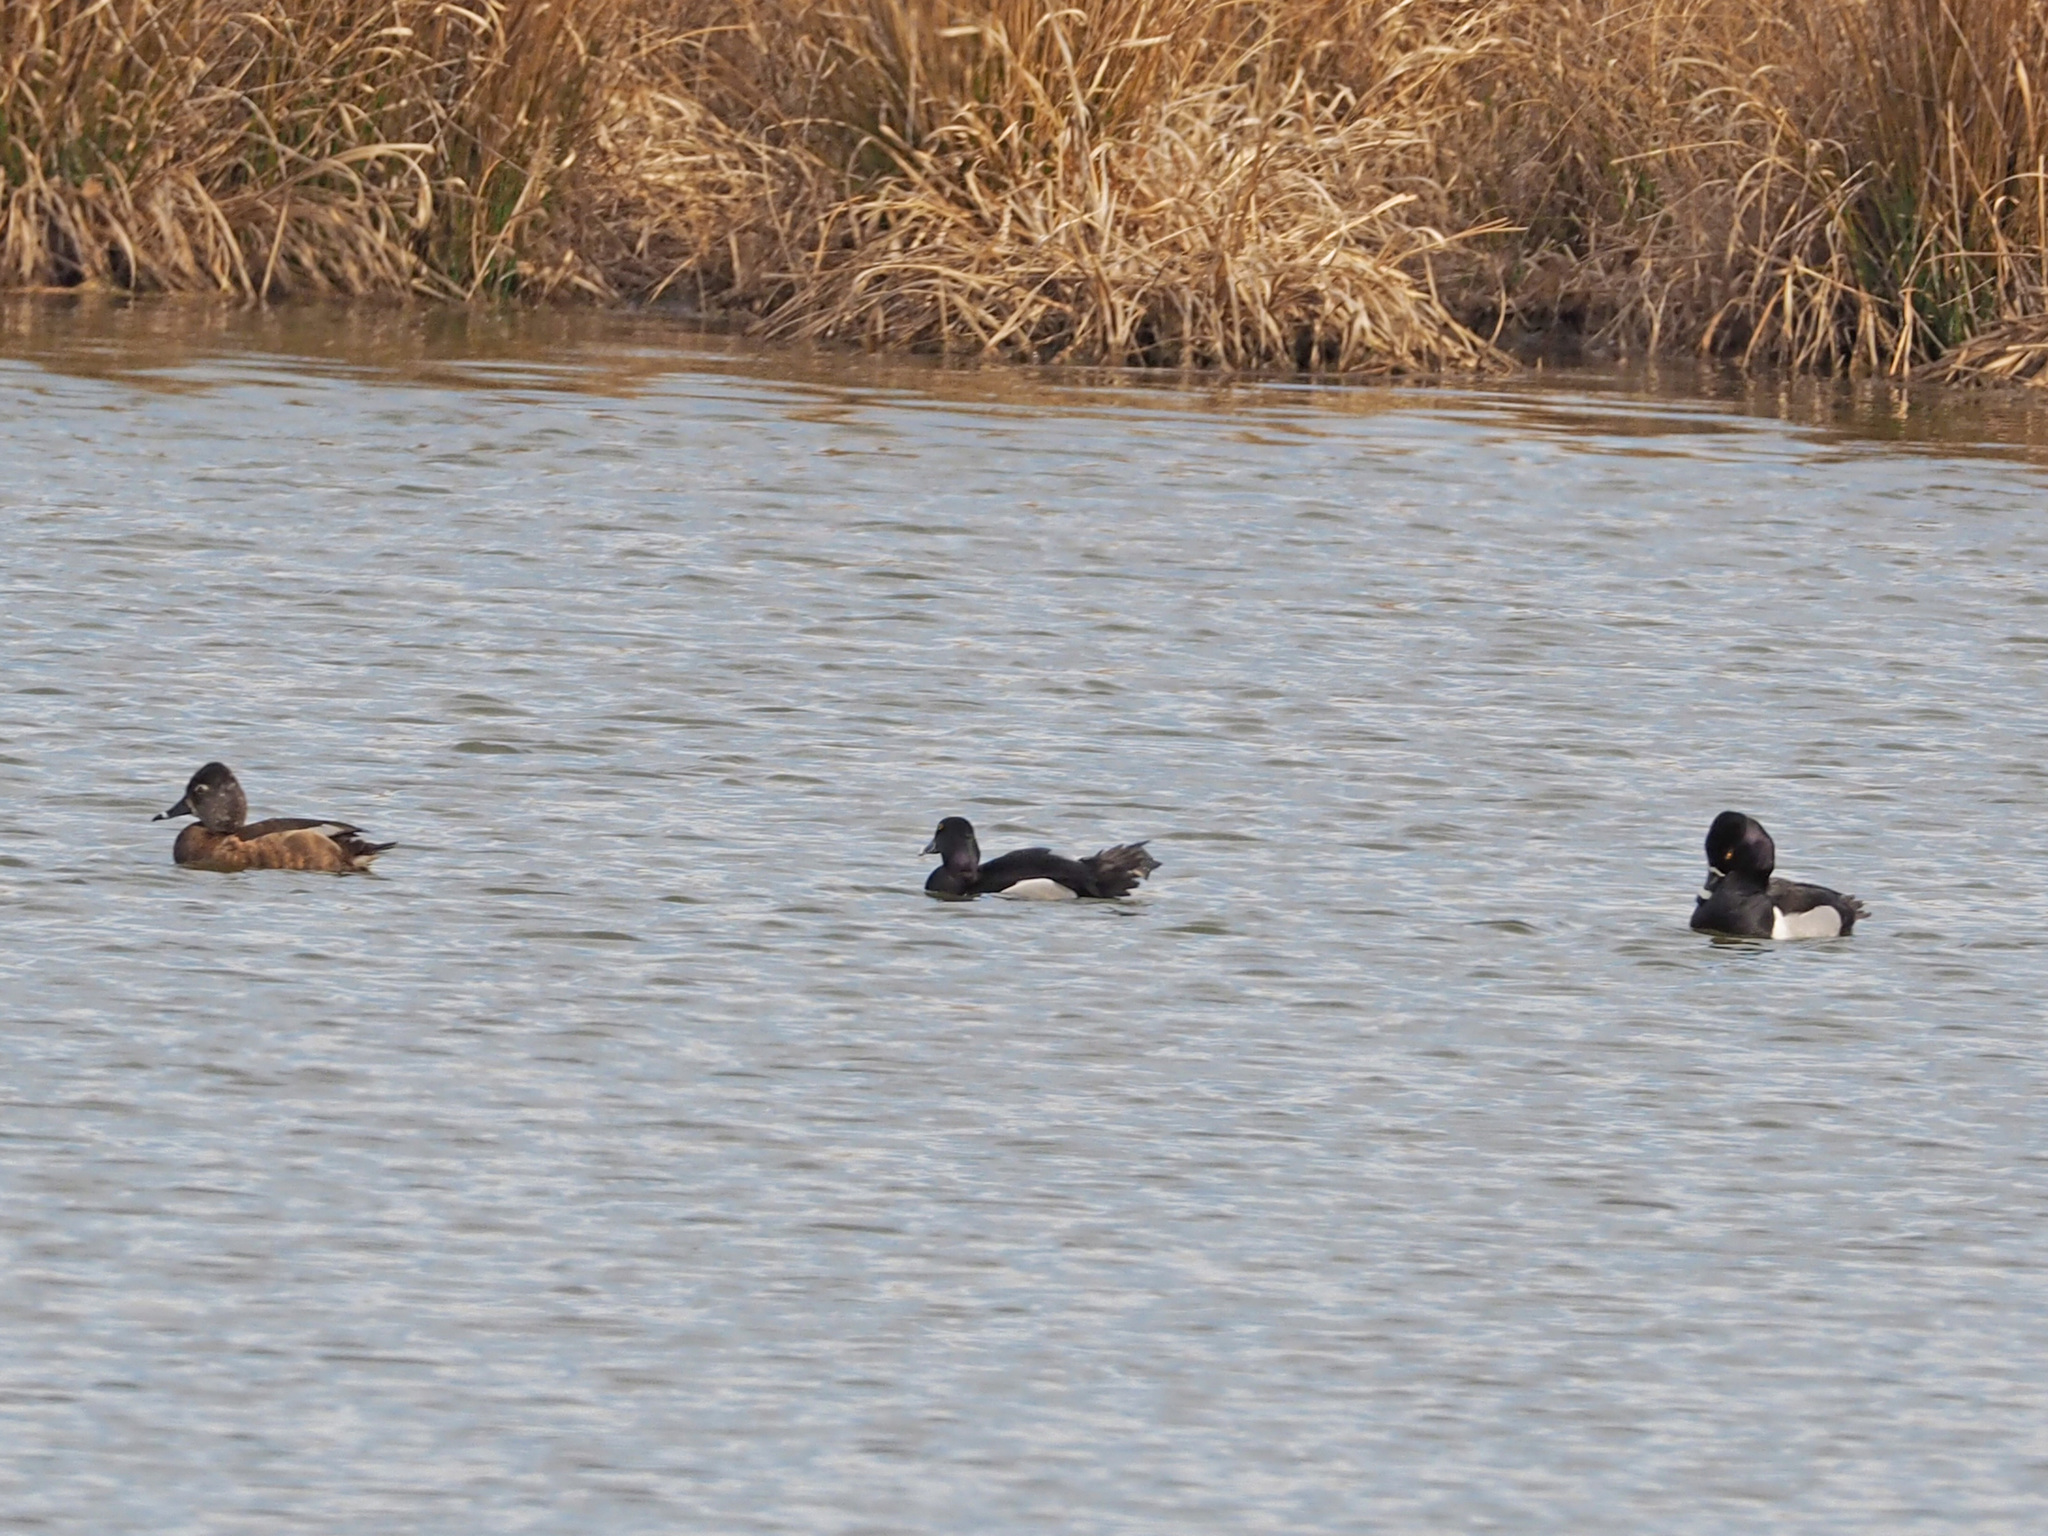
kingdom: Animalia
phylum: Chordata
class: Aves
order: Anseriformes
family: Anatidae
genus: Aythya
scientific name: Aythya collaris
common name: Ring-necked duck
